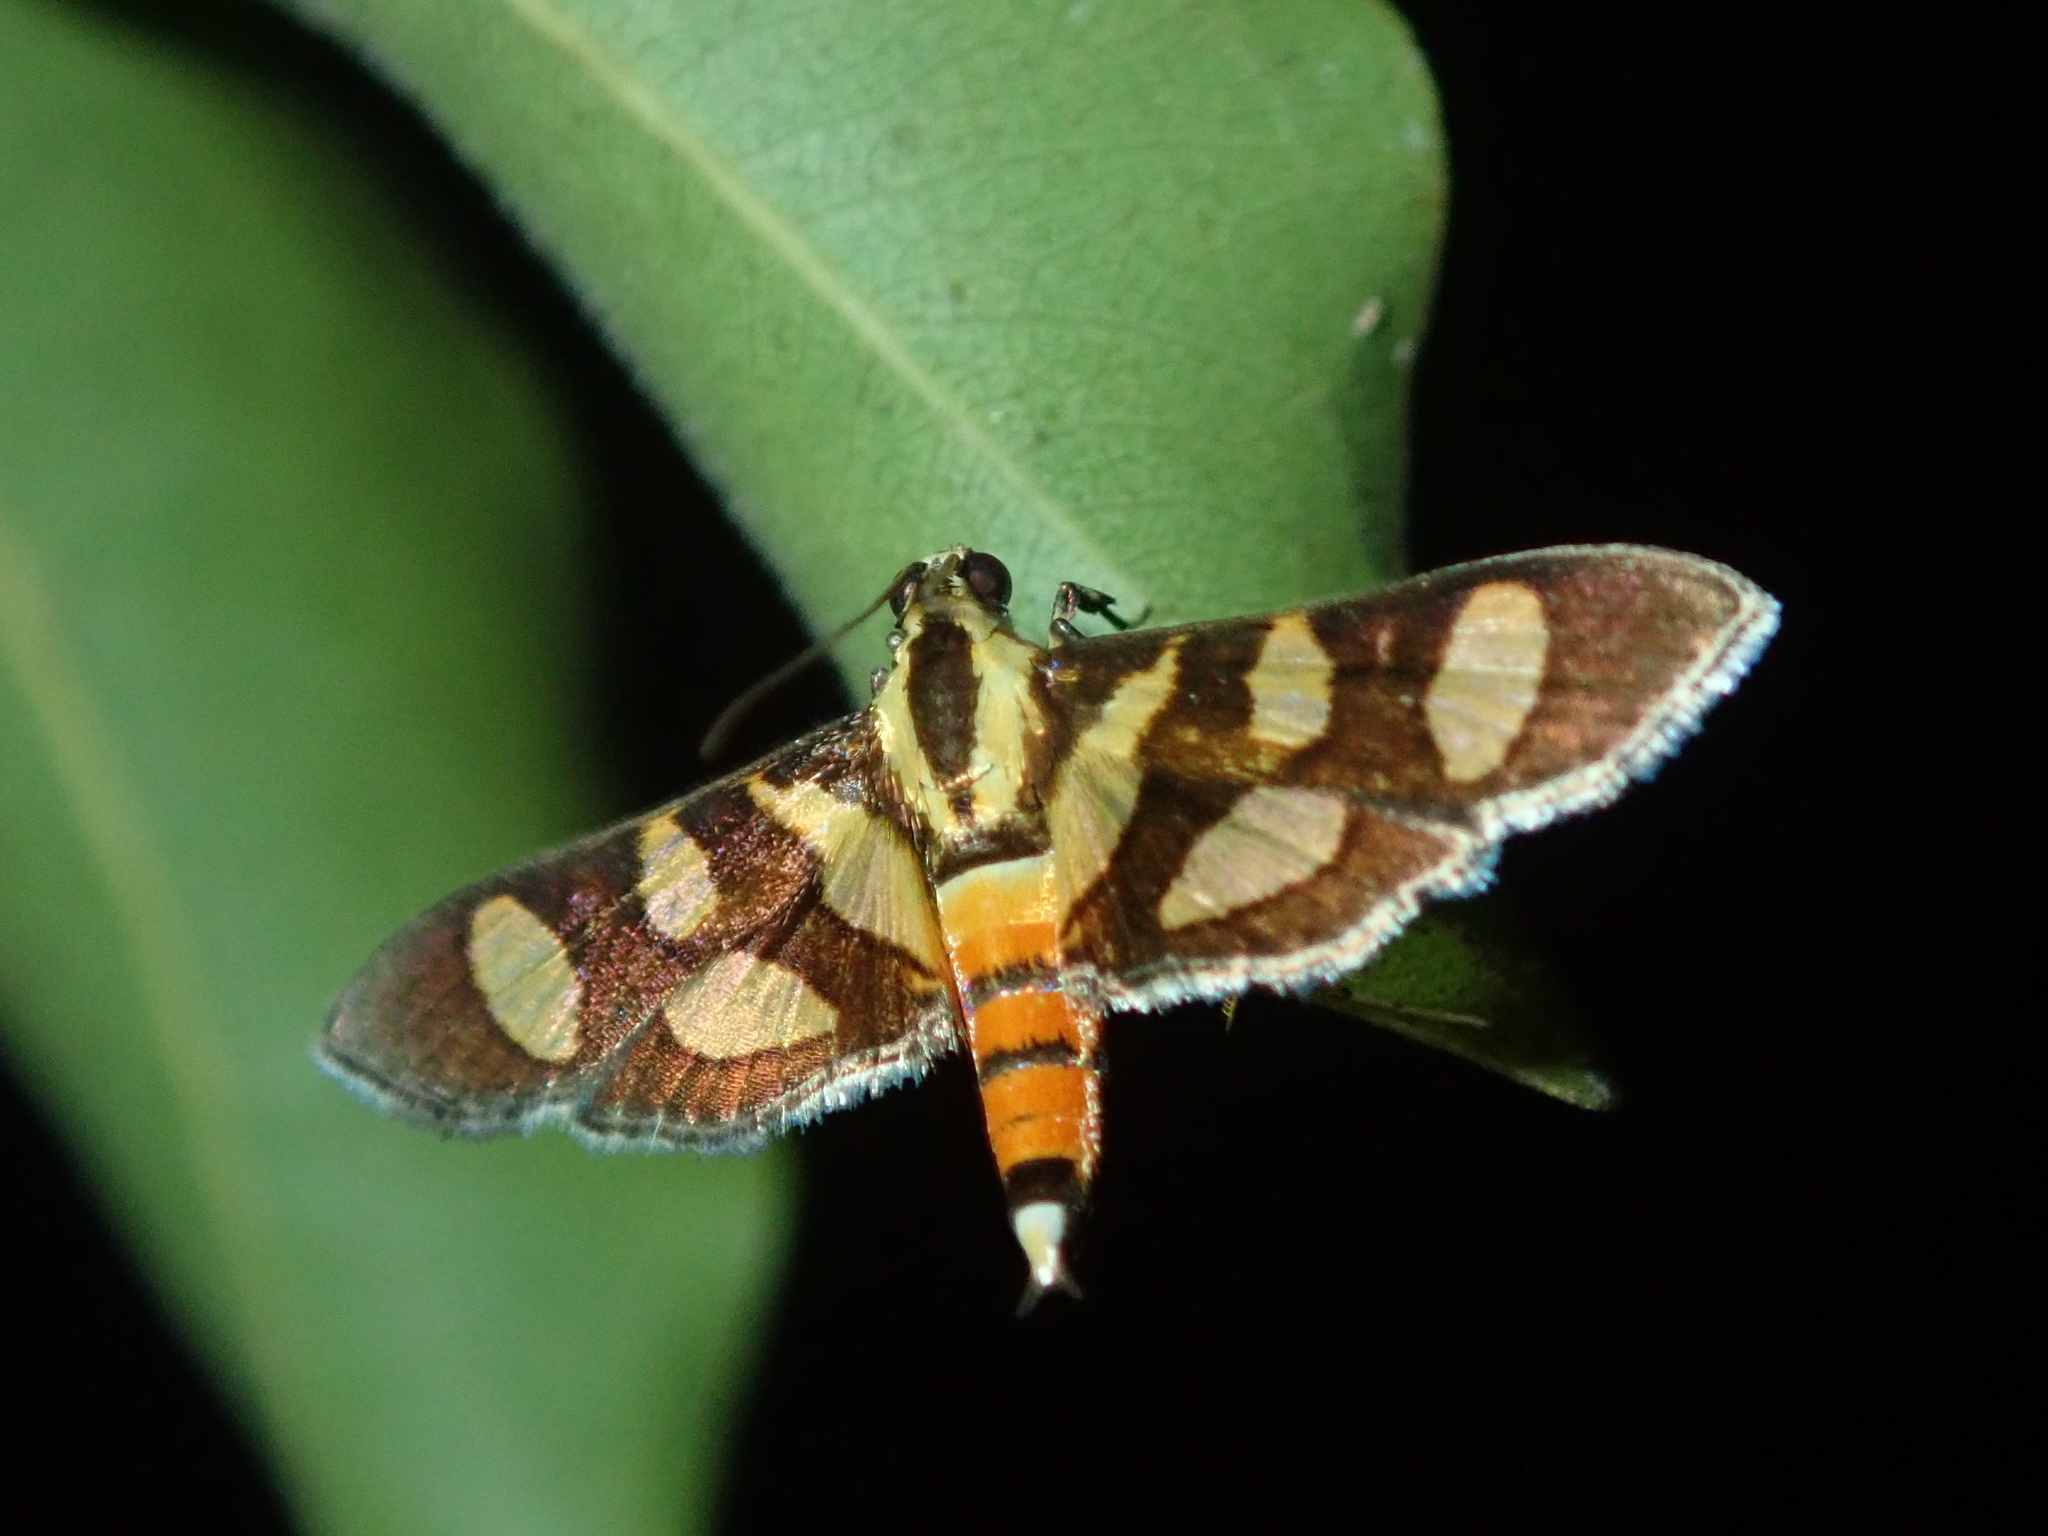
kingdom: Animalia
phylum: Arthropoda
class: Insecta
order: Lepidoptera
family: Crambidae
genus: Syngamia
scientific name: Syngamia florella
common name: Orange-spotted flower moth
